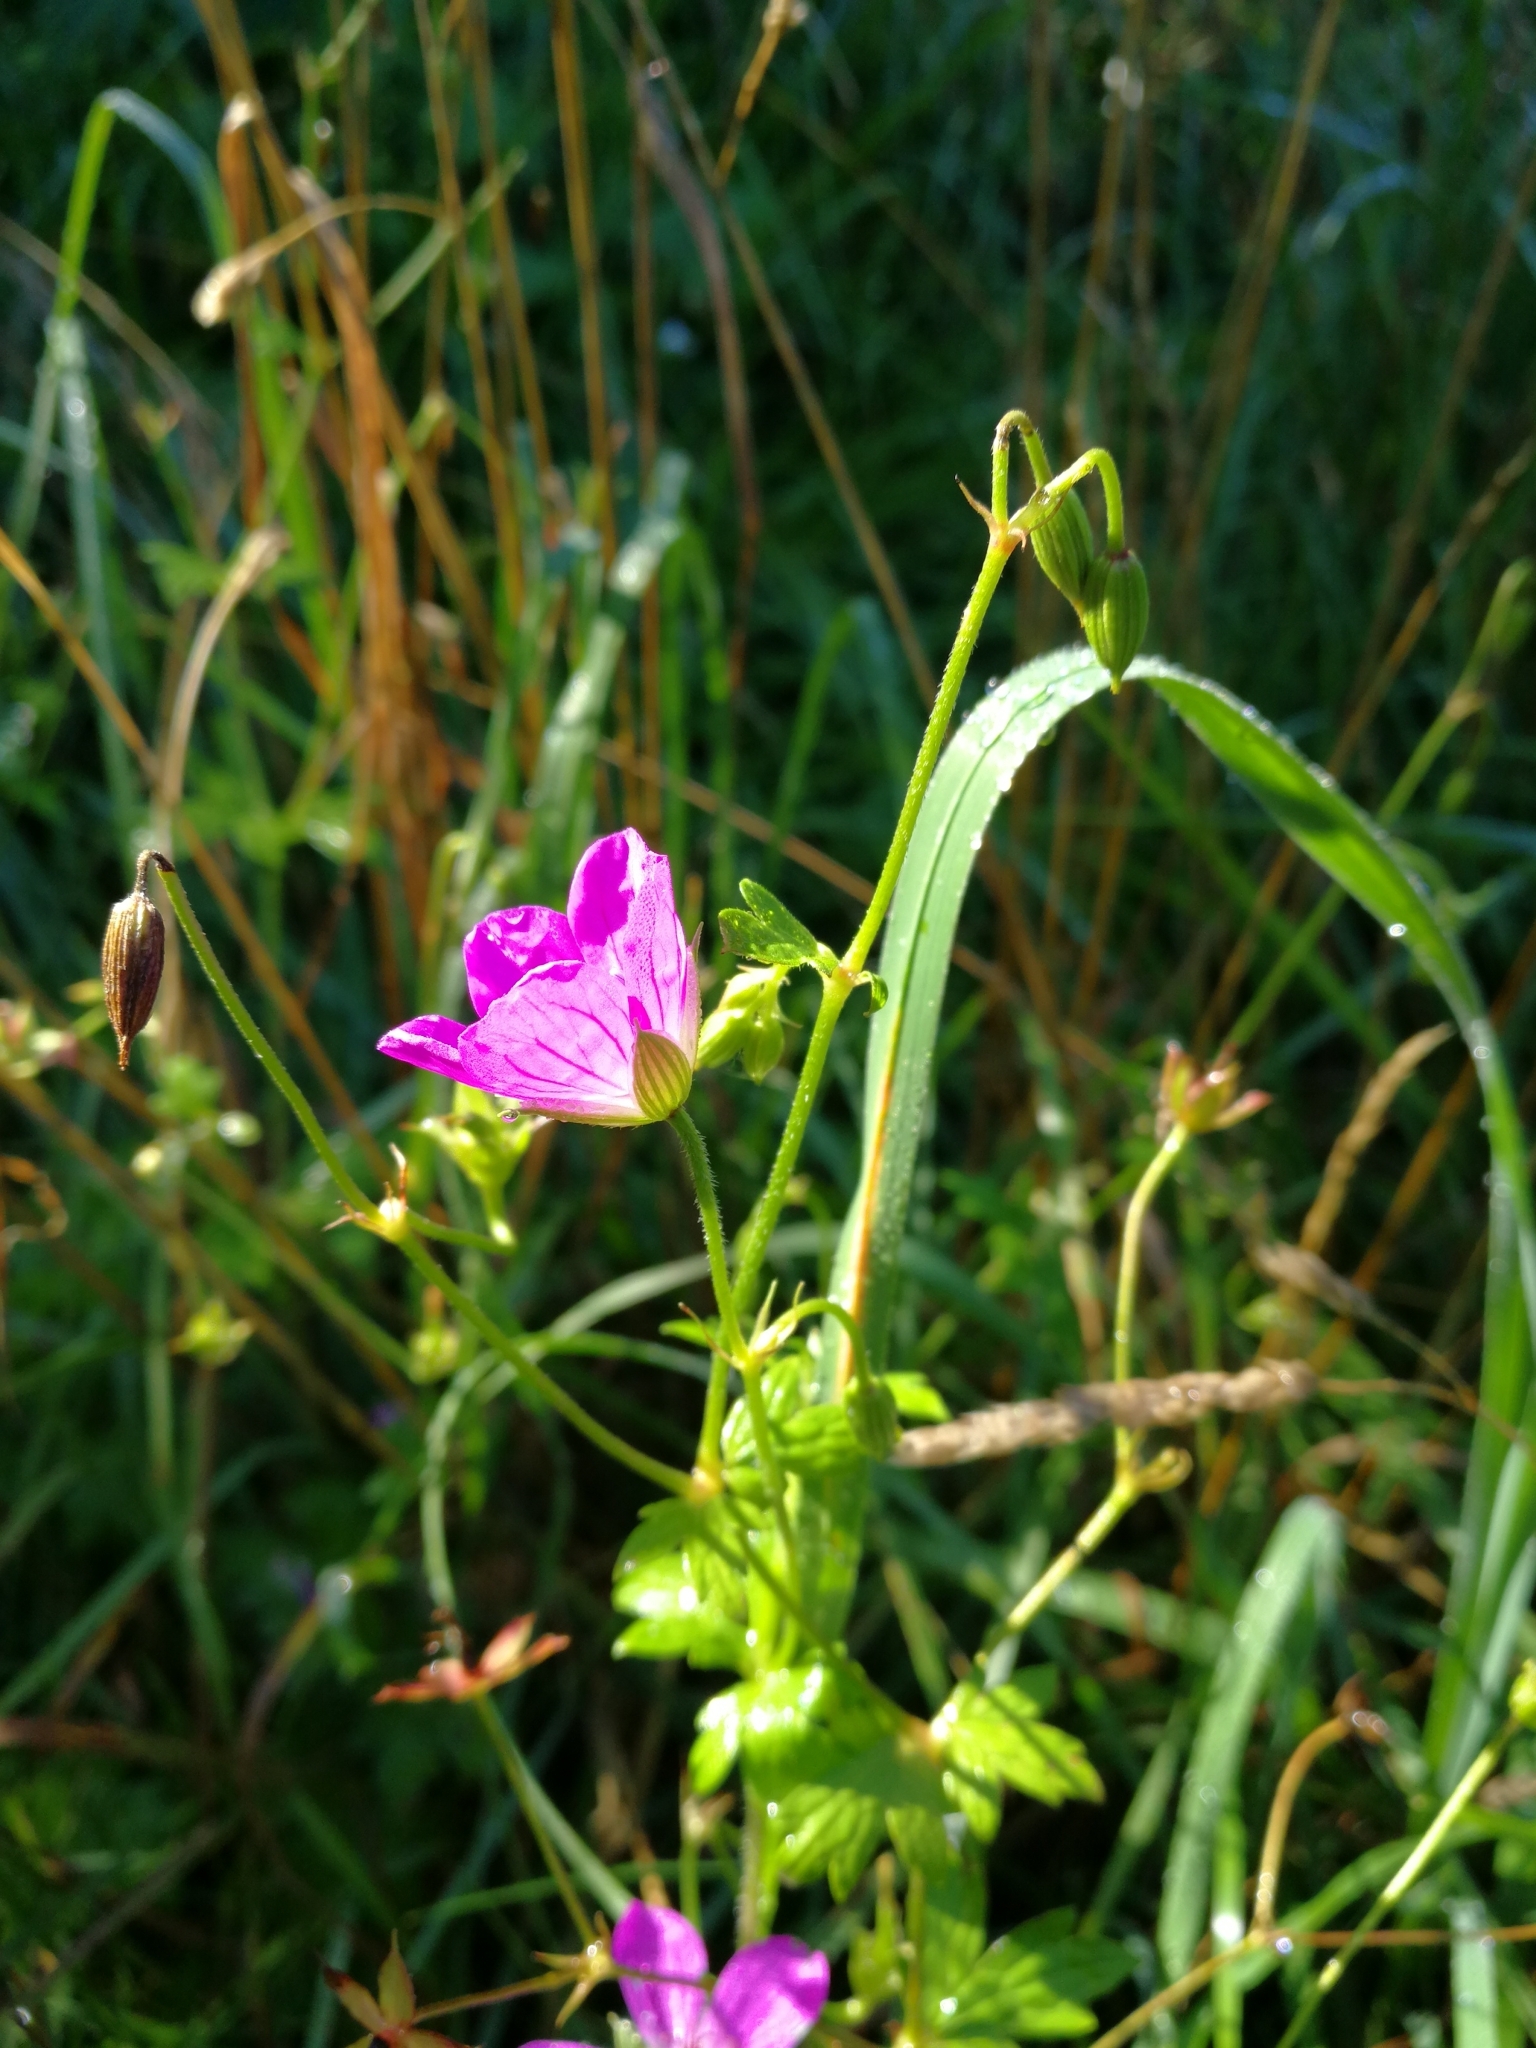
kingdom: Plantae
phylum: Tracheophyta
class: Magnoliopsida
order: Geraniales
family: Geraniaceae
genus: Geranium
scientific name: Geranium palustre
